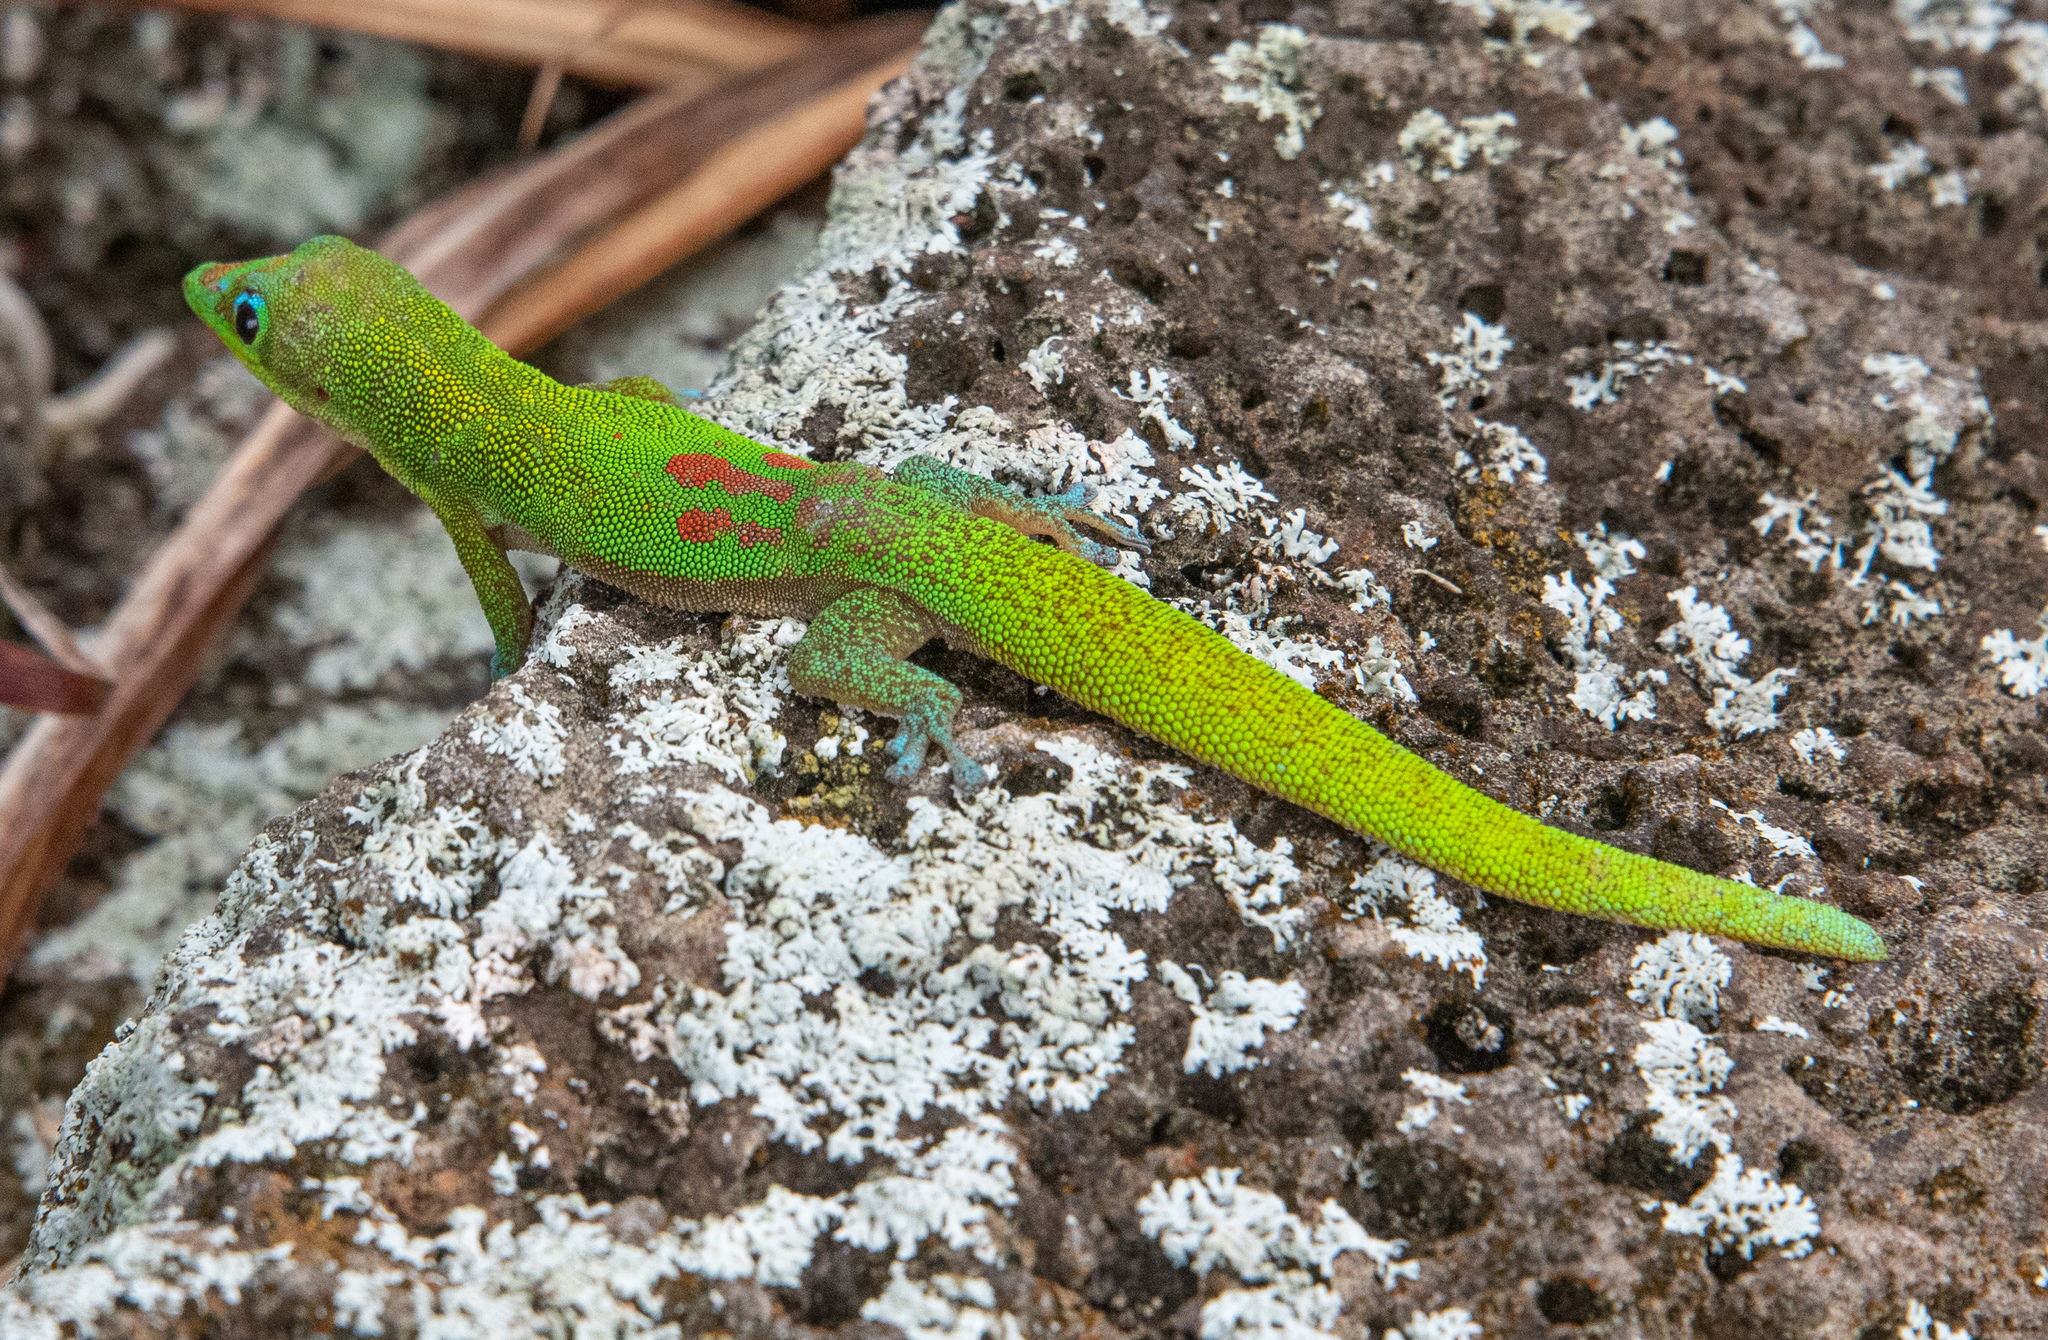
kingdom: Animalia
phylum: Chordata
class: Squamata
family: Gekkonidae
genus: Phelsuma
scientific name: Phelsuma laticauda
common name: Gold dust day gecko
